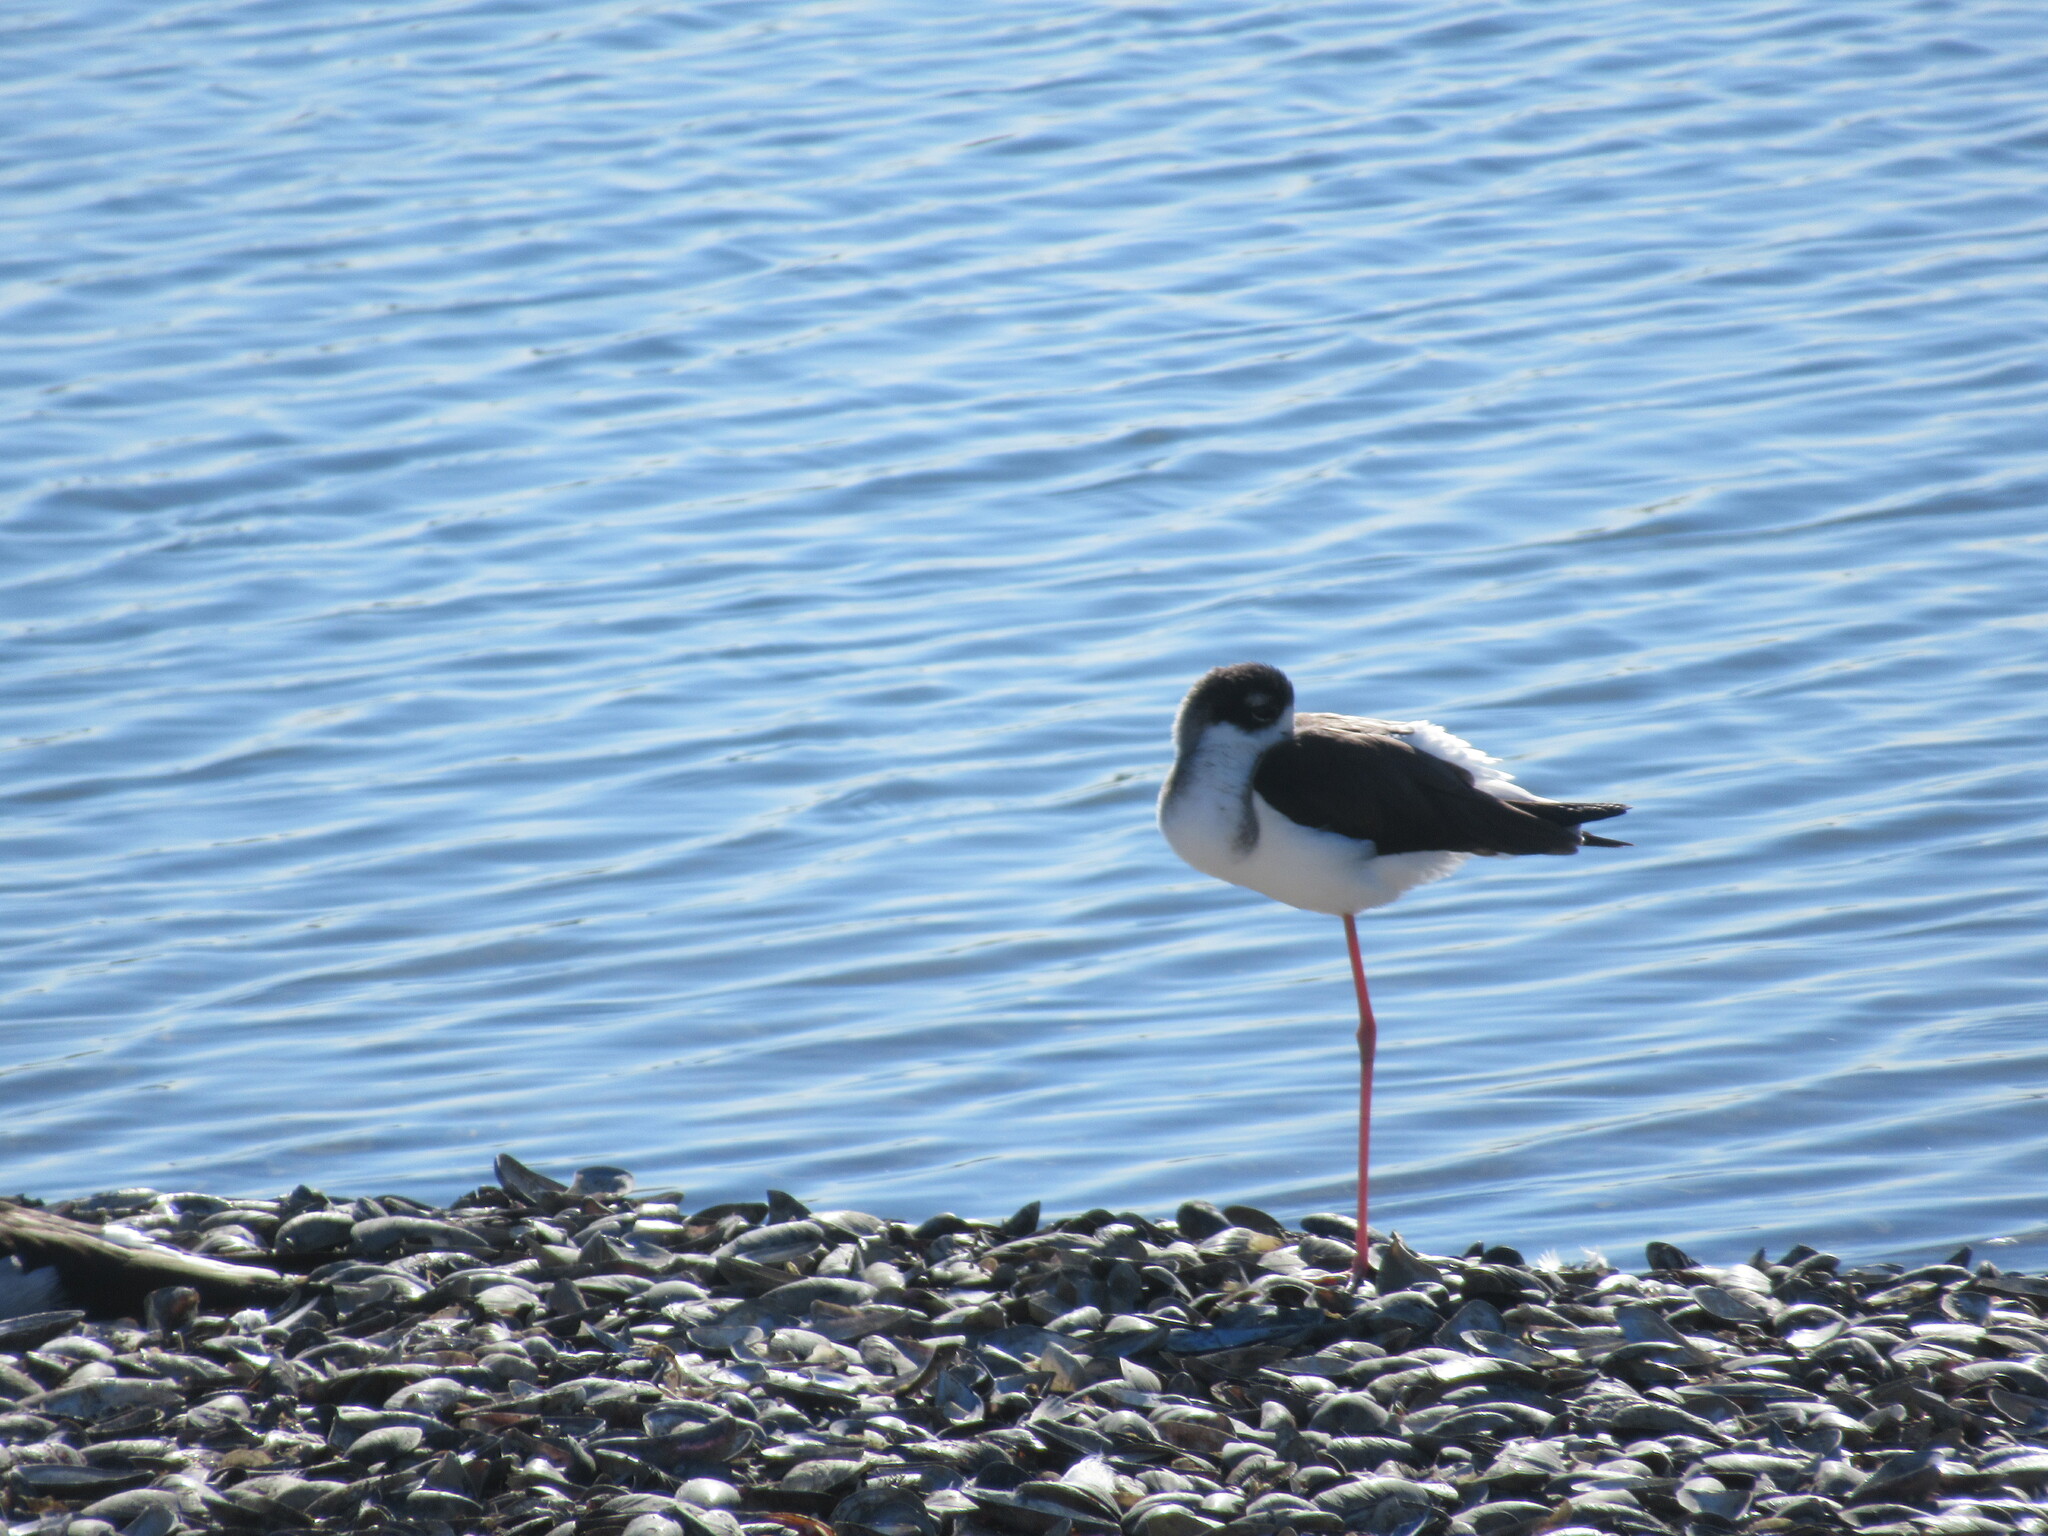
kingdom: Animalia
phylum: Chordata
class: Aves
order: Charadriiformes
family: Recurvirostridae
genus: Himantopus
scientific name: Himantopus mexicanus
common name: Black-necked stilt
